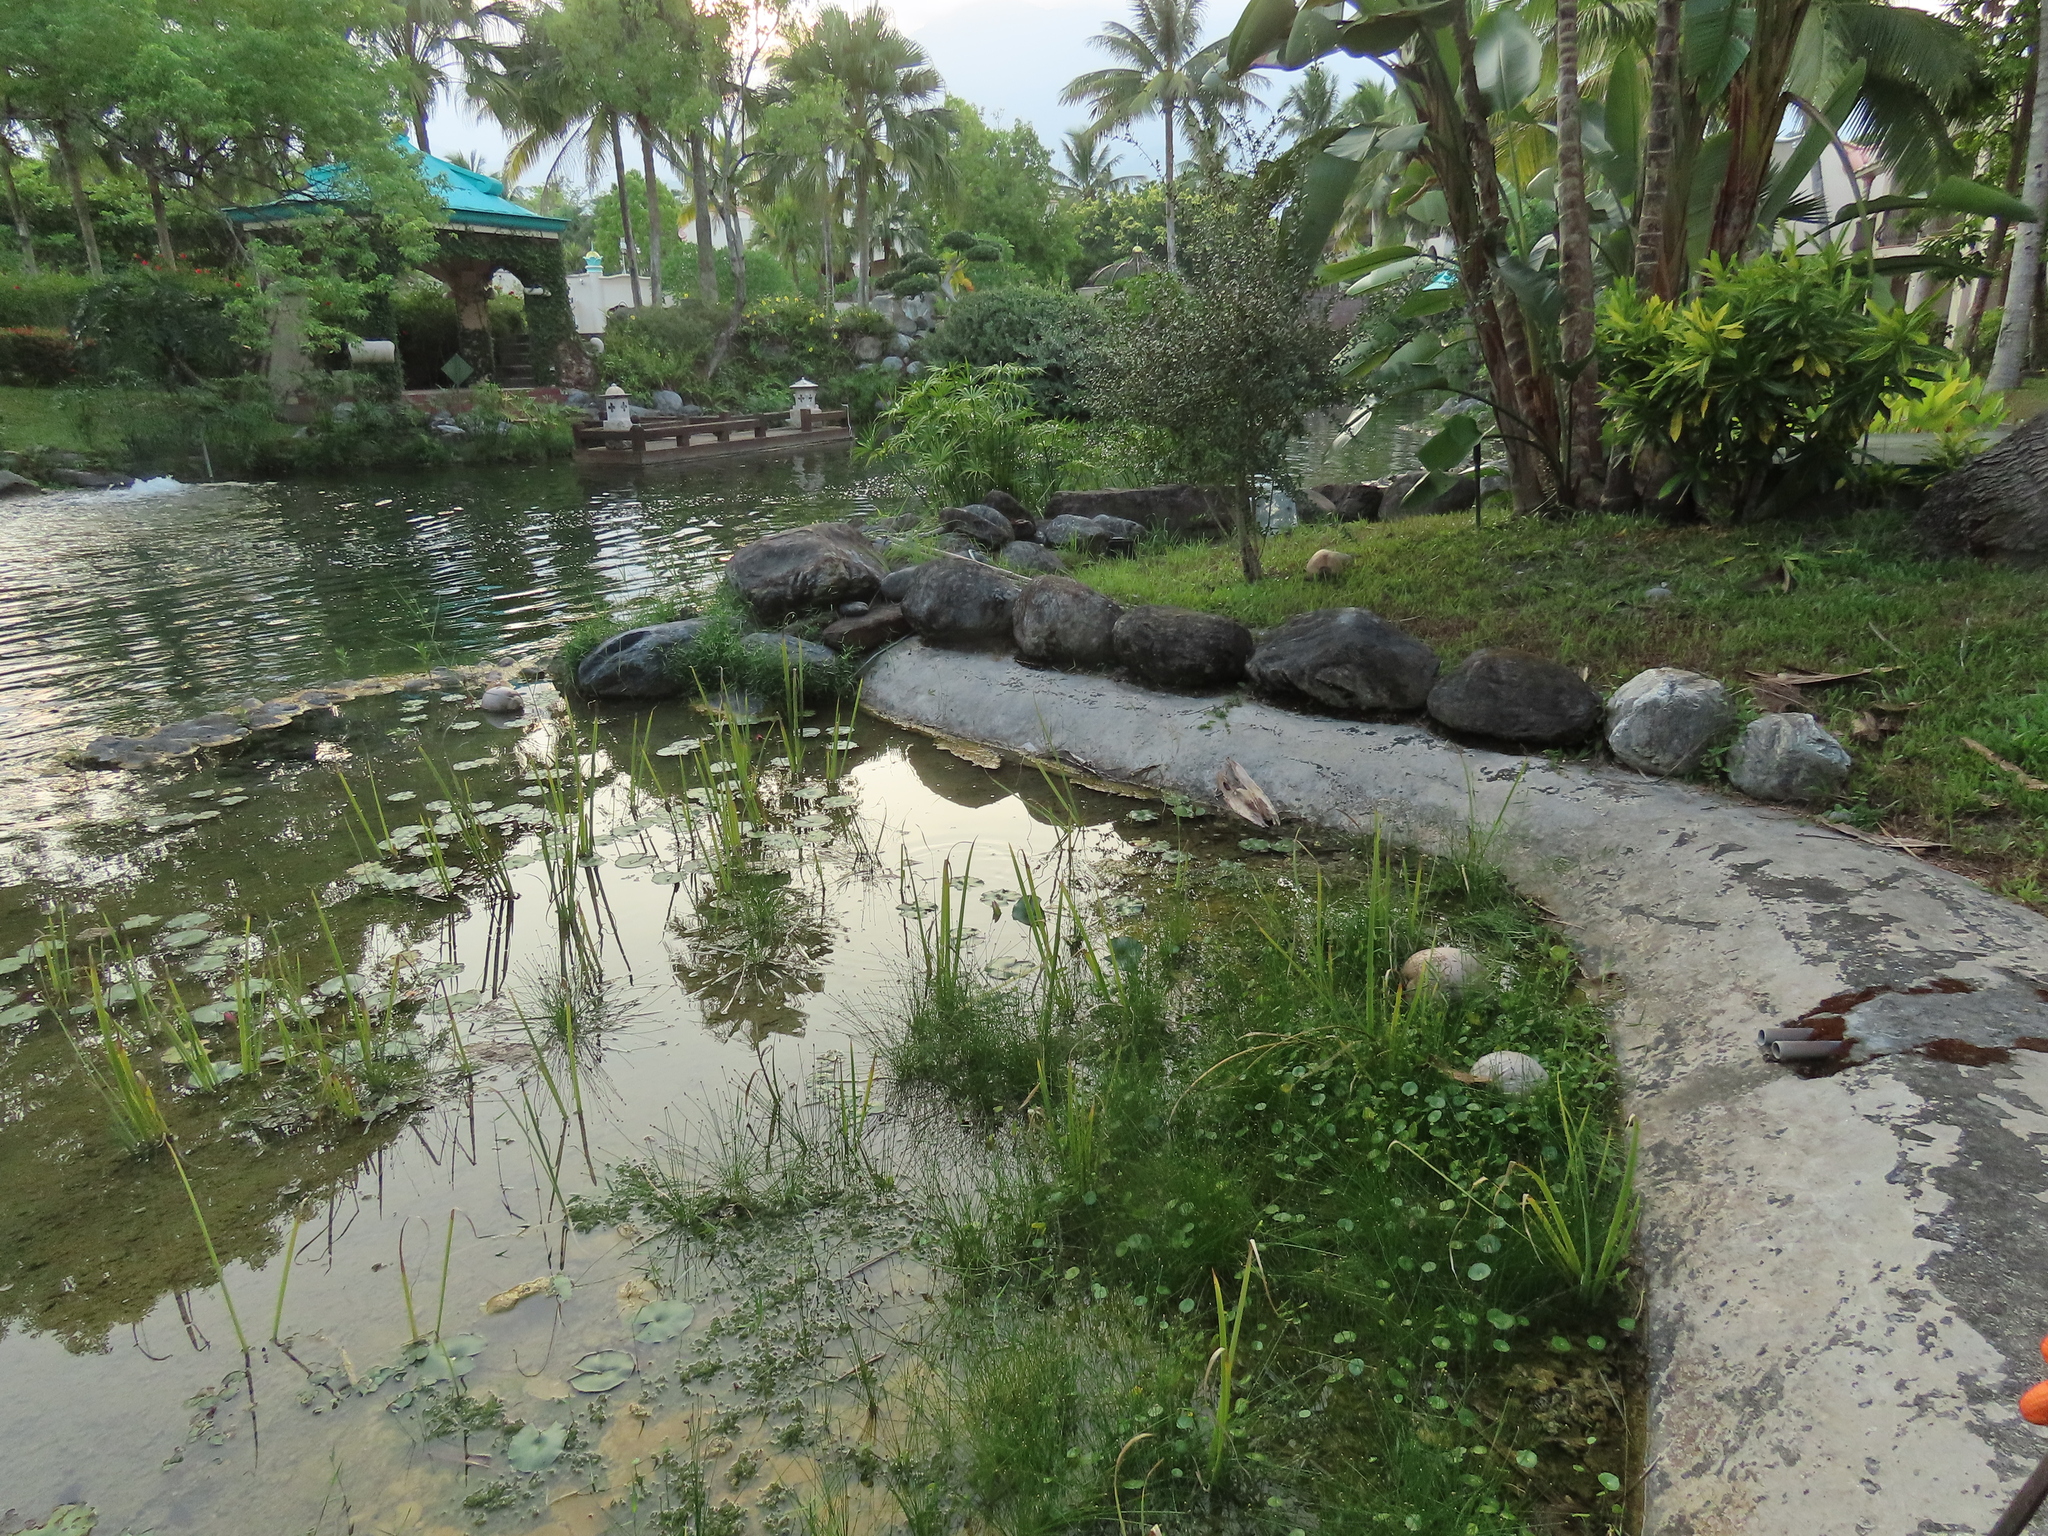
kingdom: Plantae
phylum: Tracheophyta
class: Liliopsida
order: Poales
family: Cyperaceae
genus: Eleocharis
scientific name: Eleocharis geniculata
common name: Canada spikesedge
